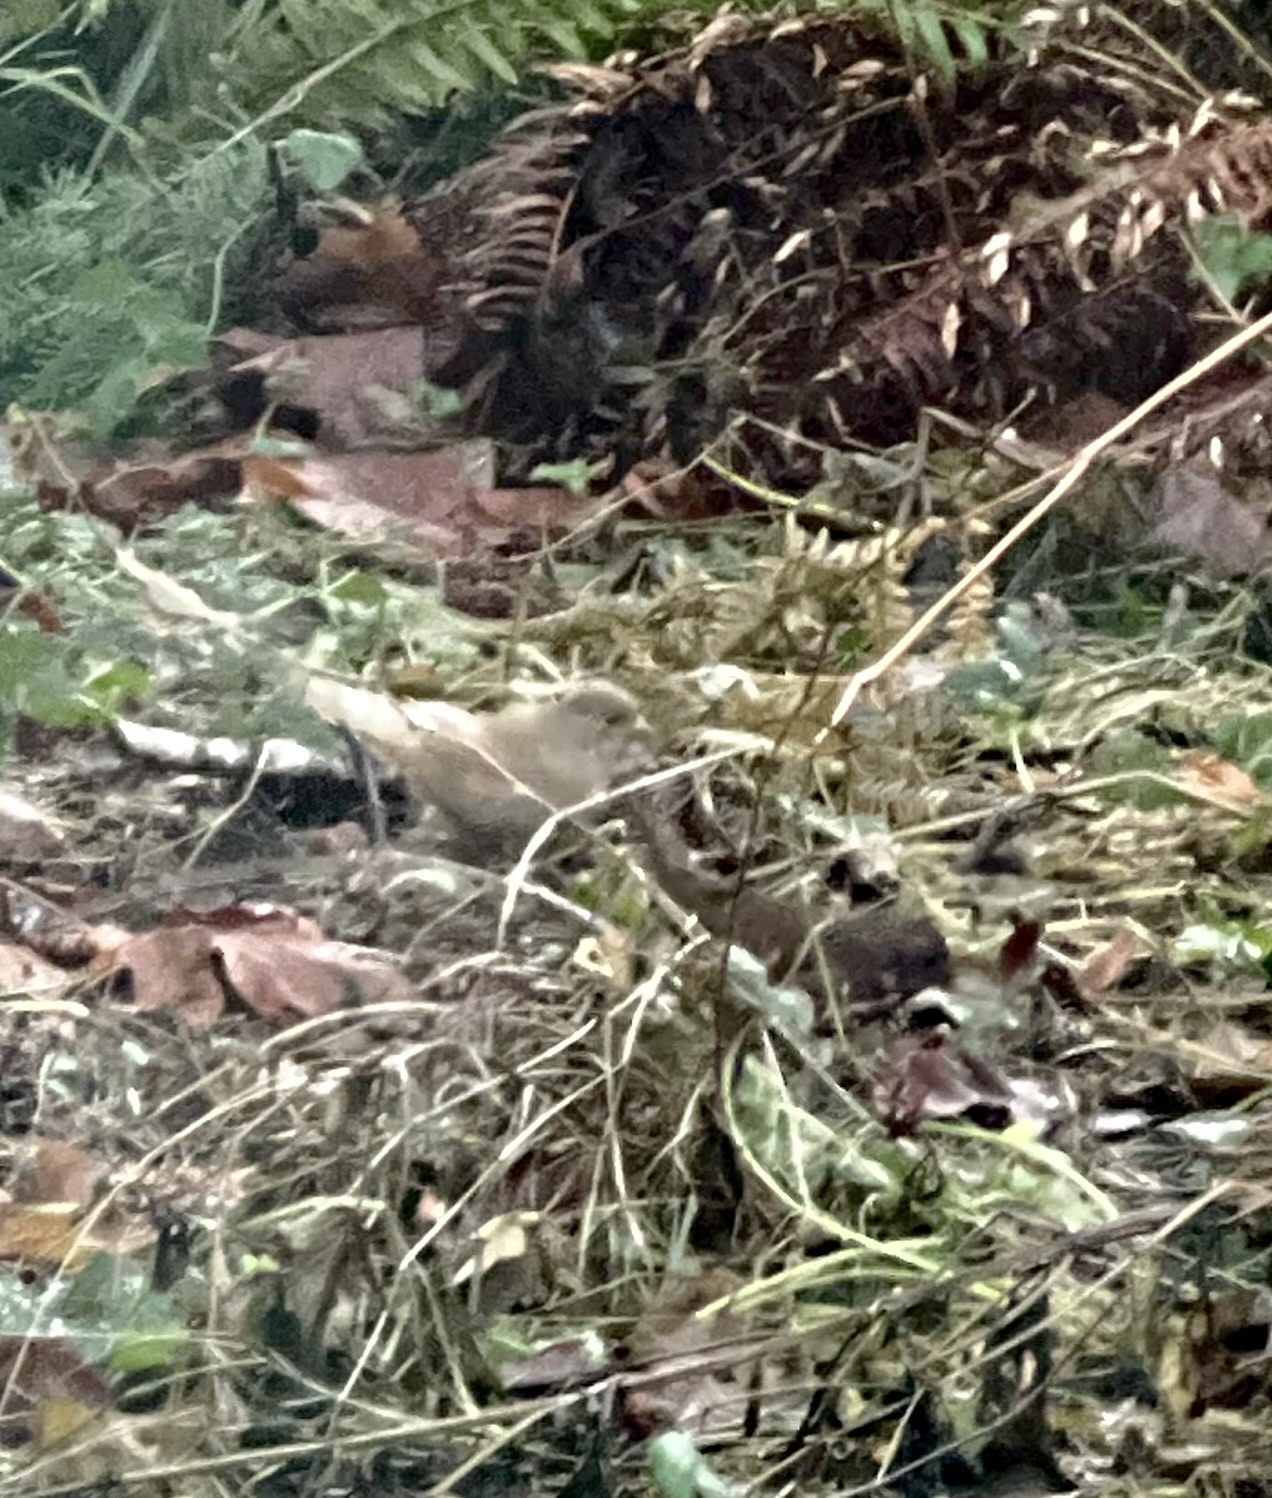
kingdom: Animalia
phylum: Chordata
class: Aves
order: Passeriformes
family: Passerellidae
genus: Passerella
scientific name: Passerella iliaca
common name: Fox sparrow
